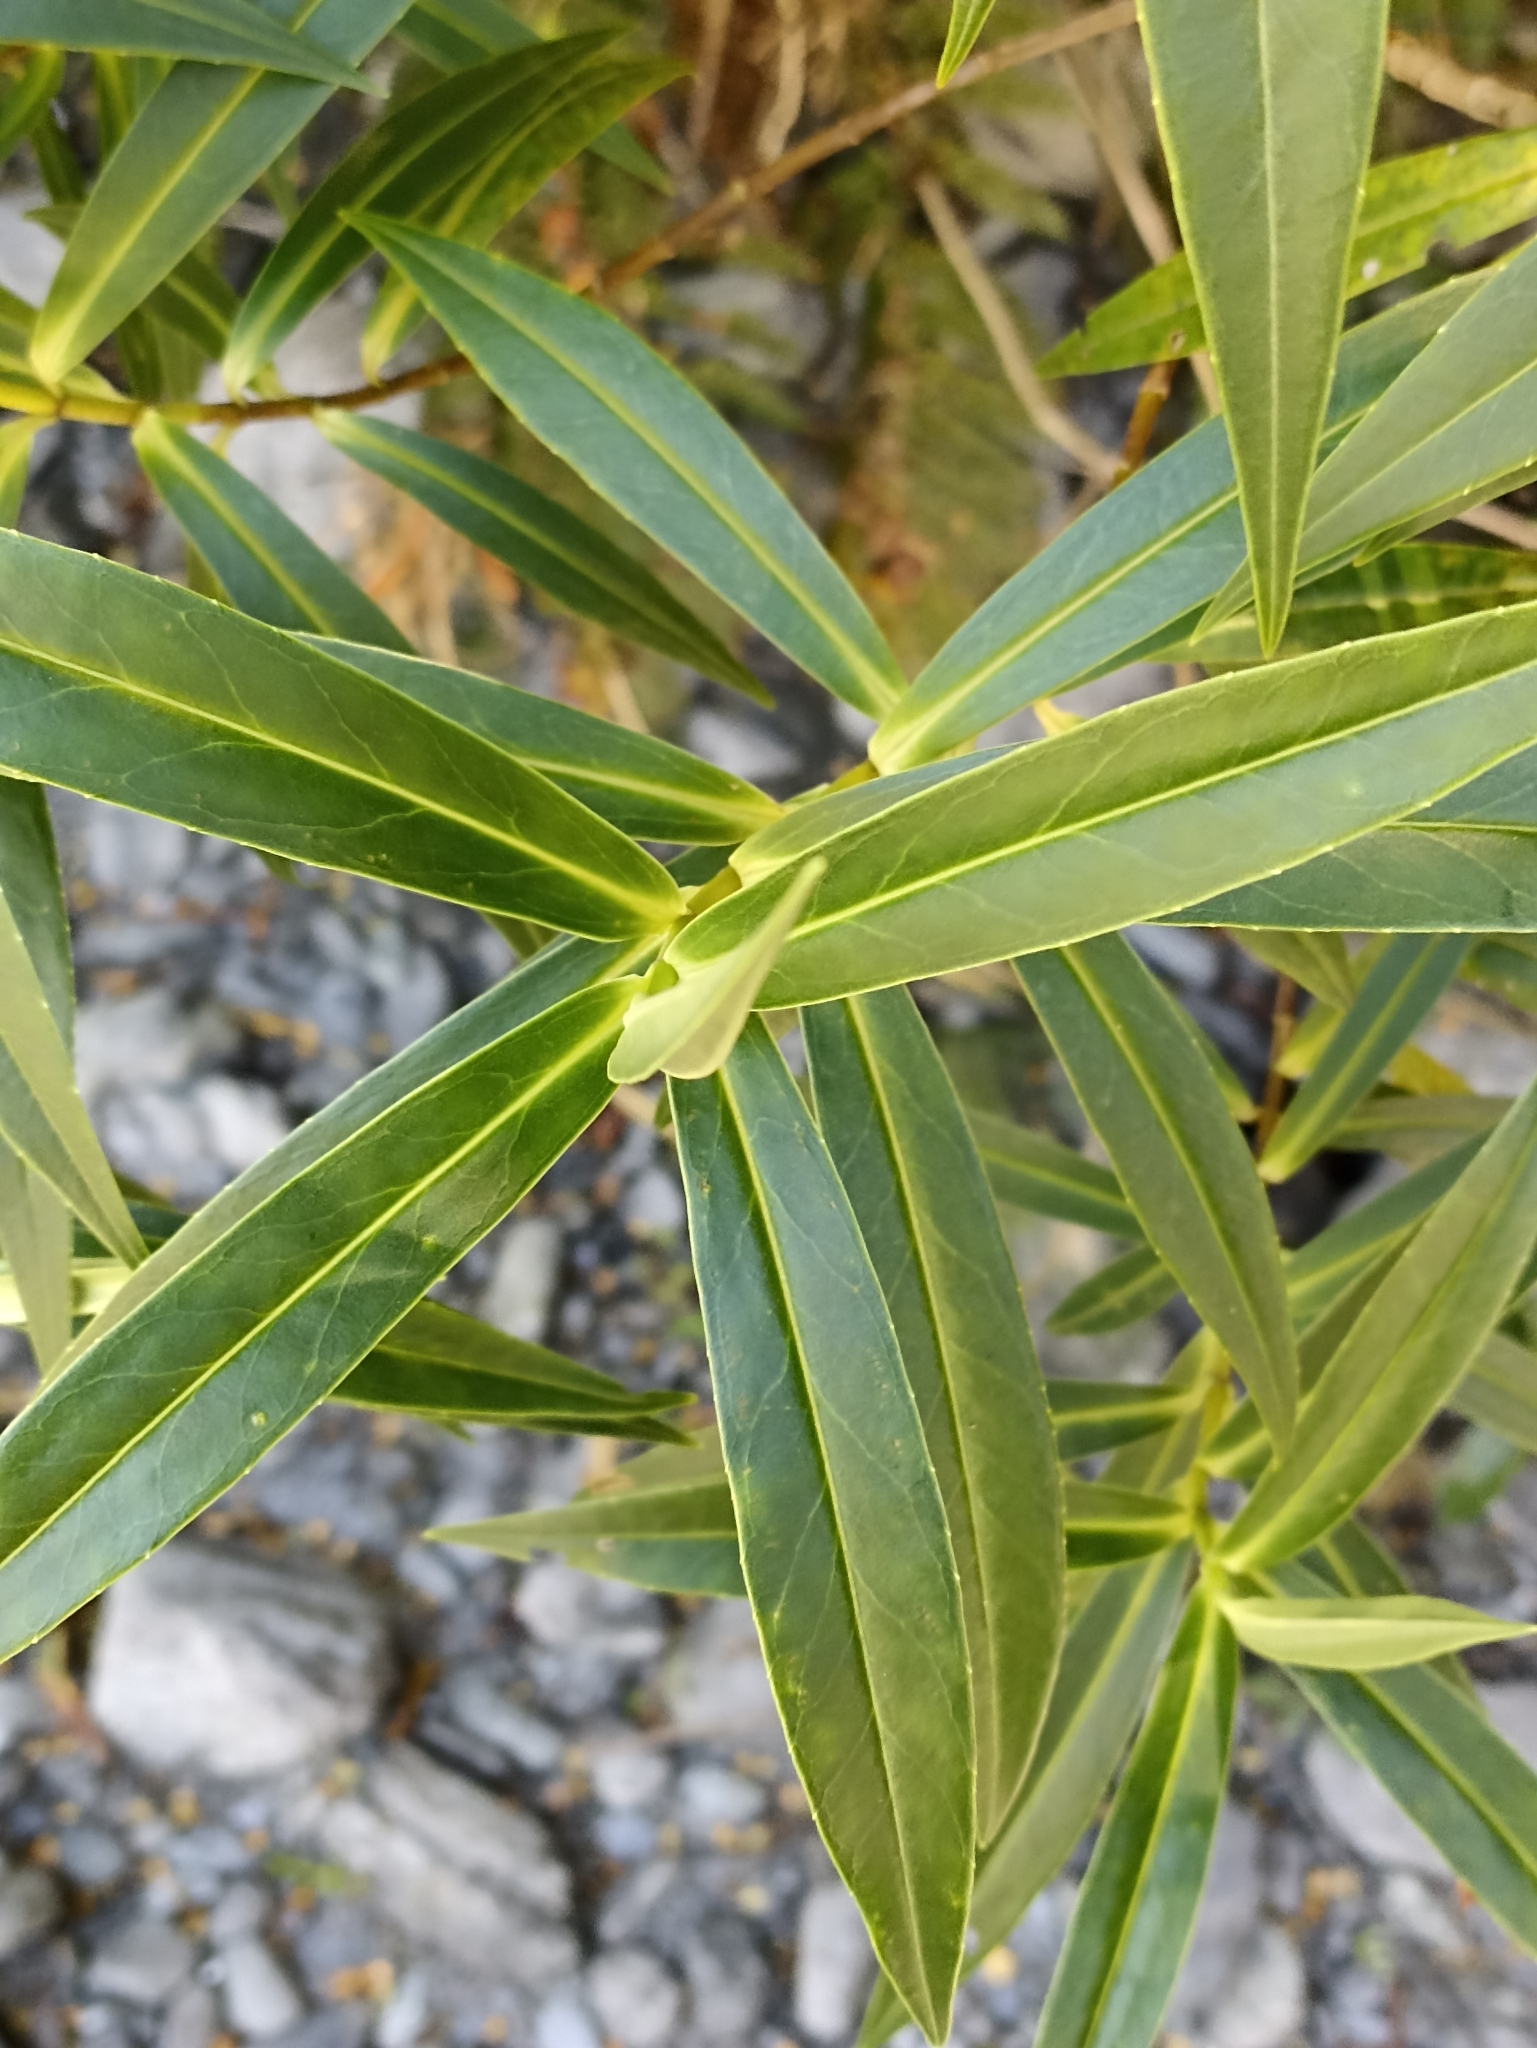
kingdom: Plantae
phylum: Tracheophyta
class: Magnoliopsida
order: Lamiales
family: Plantaginaceae
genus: Veronica
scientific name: Veronica salicifolia
